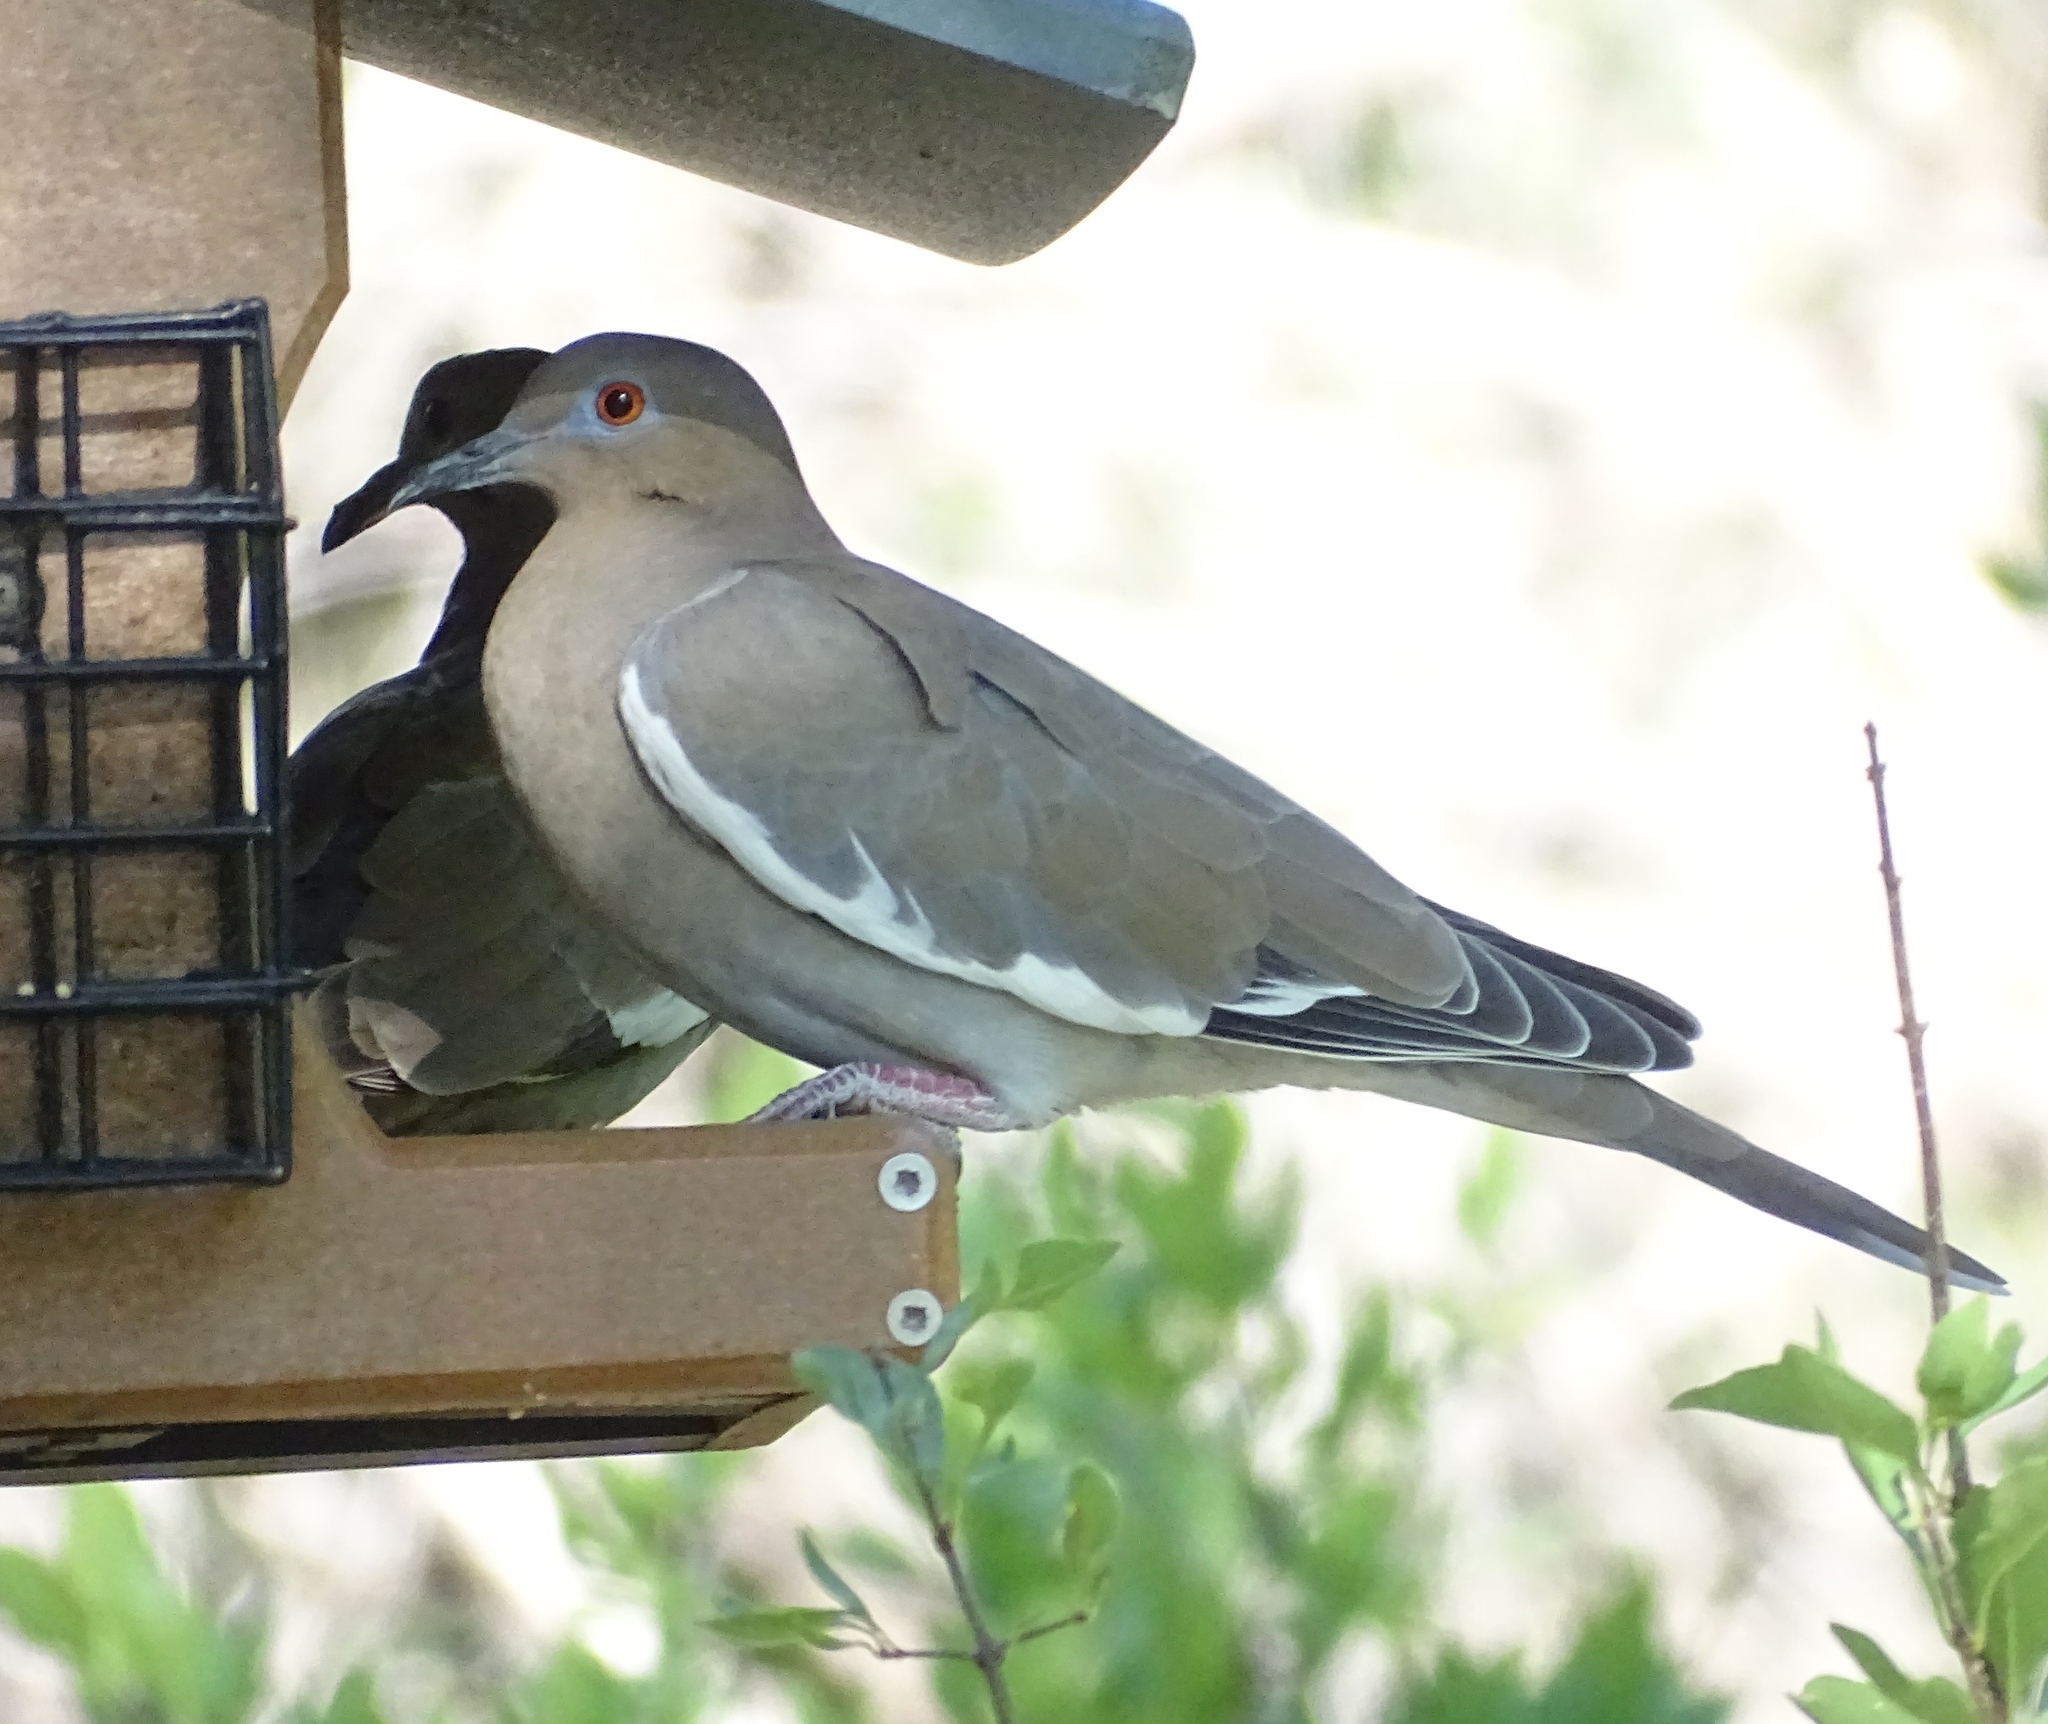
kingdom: Animalia
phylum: Chordata
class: Aves
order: Columbiformes
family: Columbidae
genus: Zenaida
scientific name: Zenaida asiatica
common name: White-winged dove
